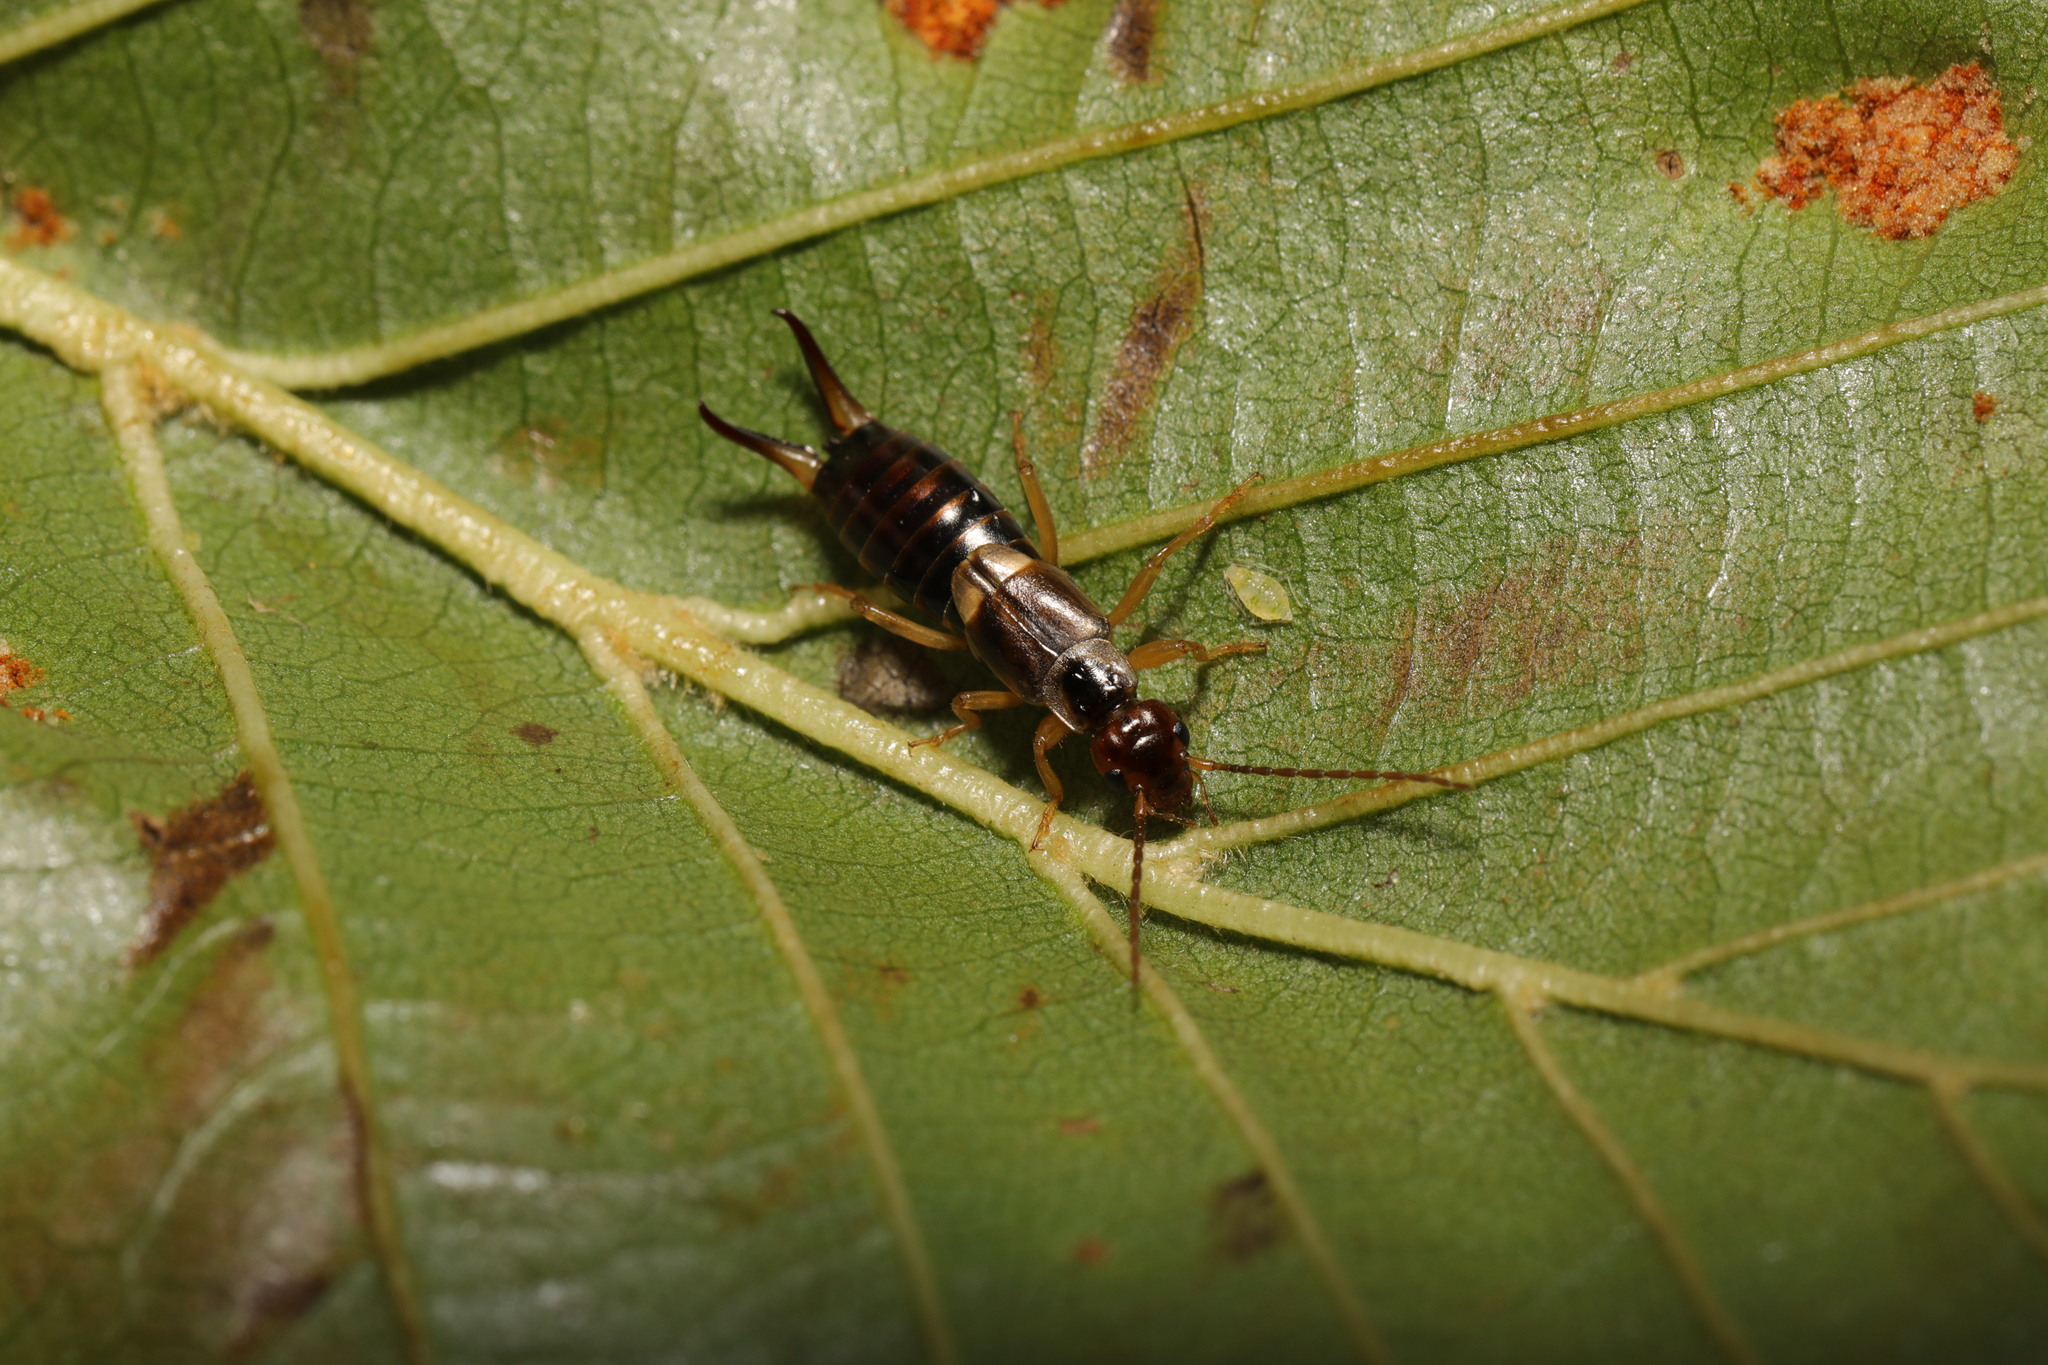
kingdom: Animalia
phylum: Arthropoda
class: Insecta
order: Dermaptera
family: Forficulidae
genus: Forficula
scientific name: Forficula
